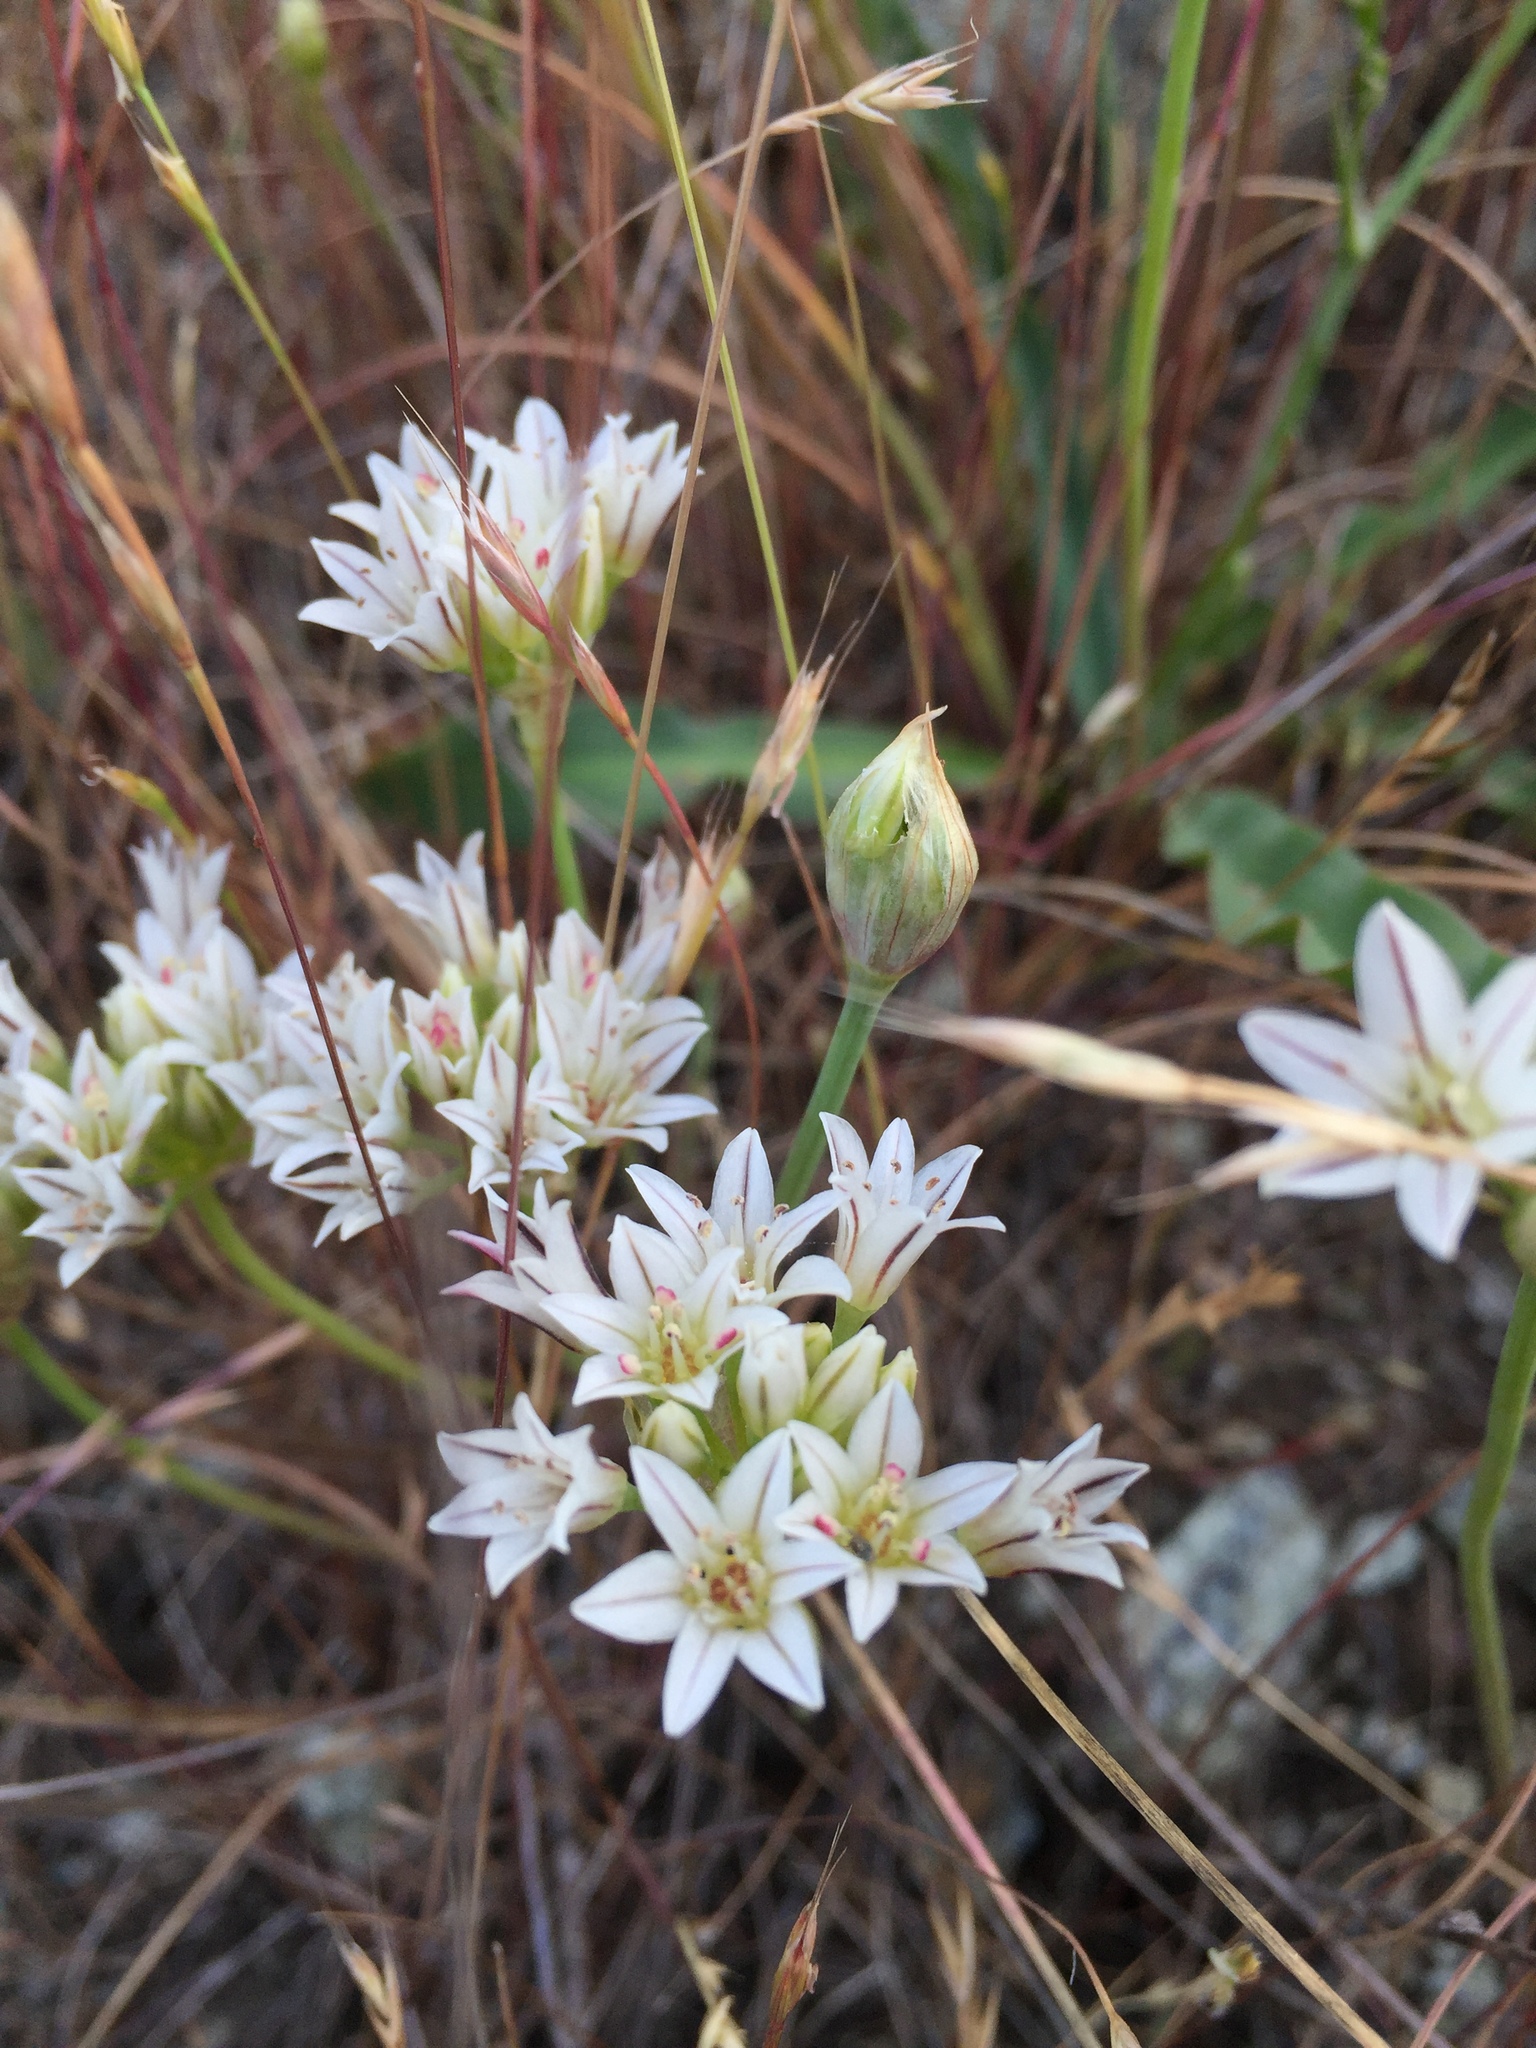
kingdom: Plantae
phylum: Tracheophyta
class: Liliopsida
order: Asparagales
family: Amaryllidaceae
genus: Allium
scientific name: Allium lacunosum
